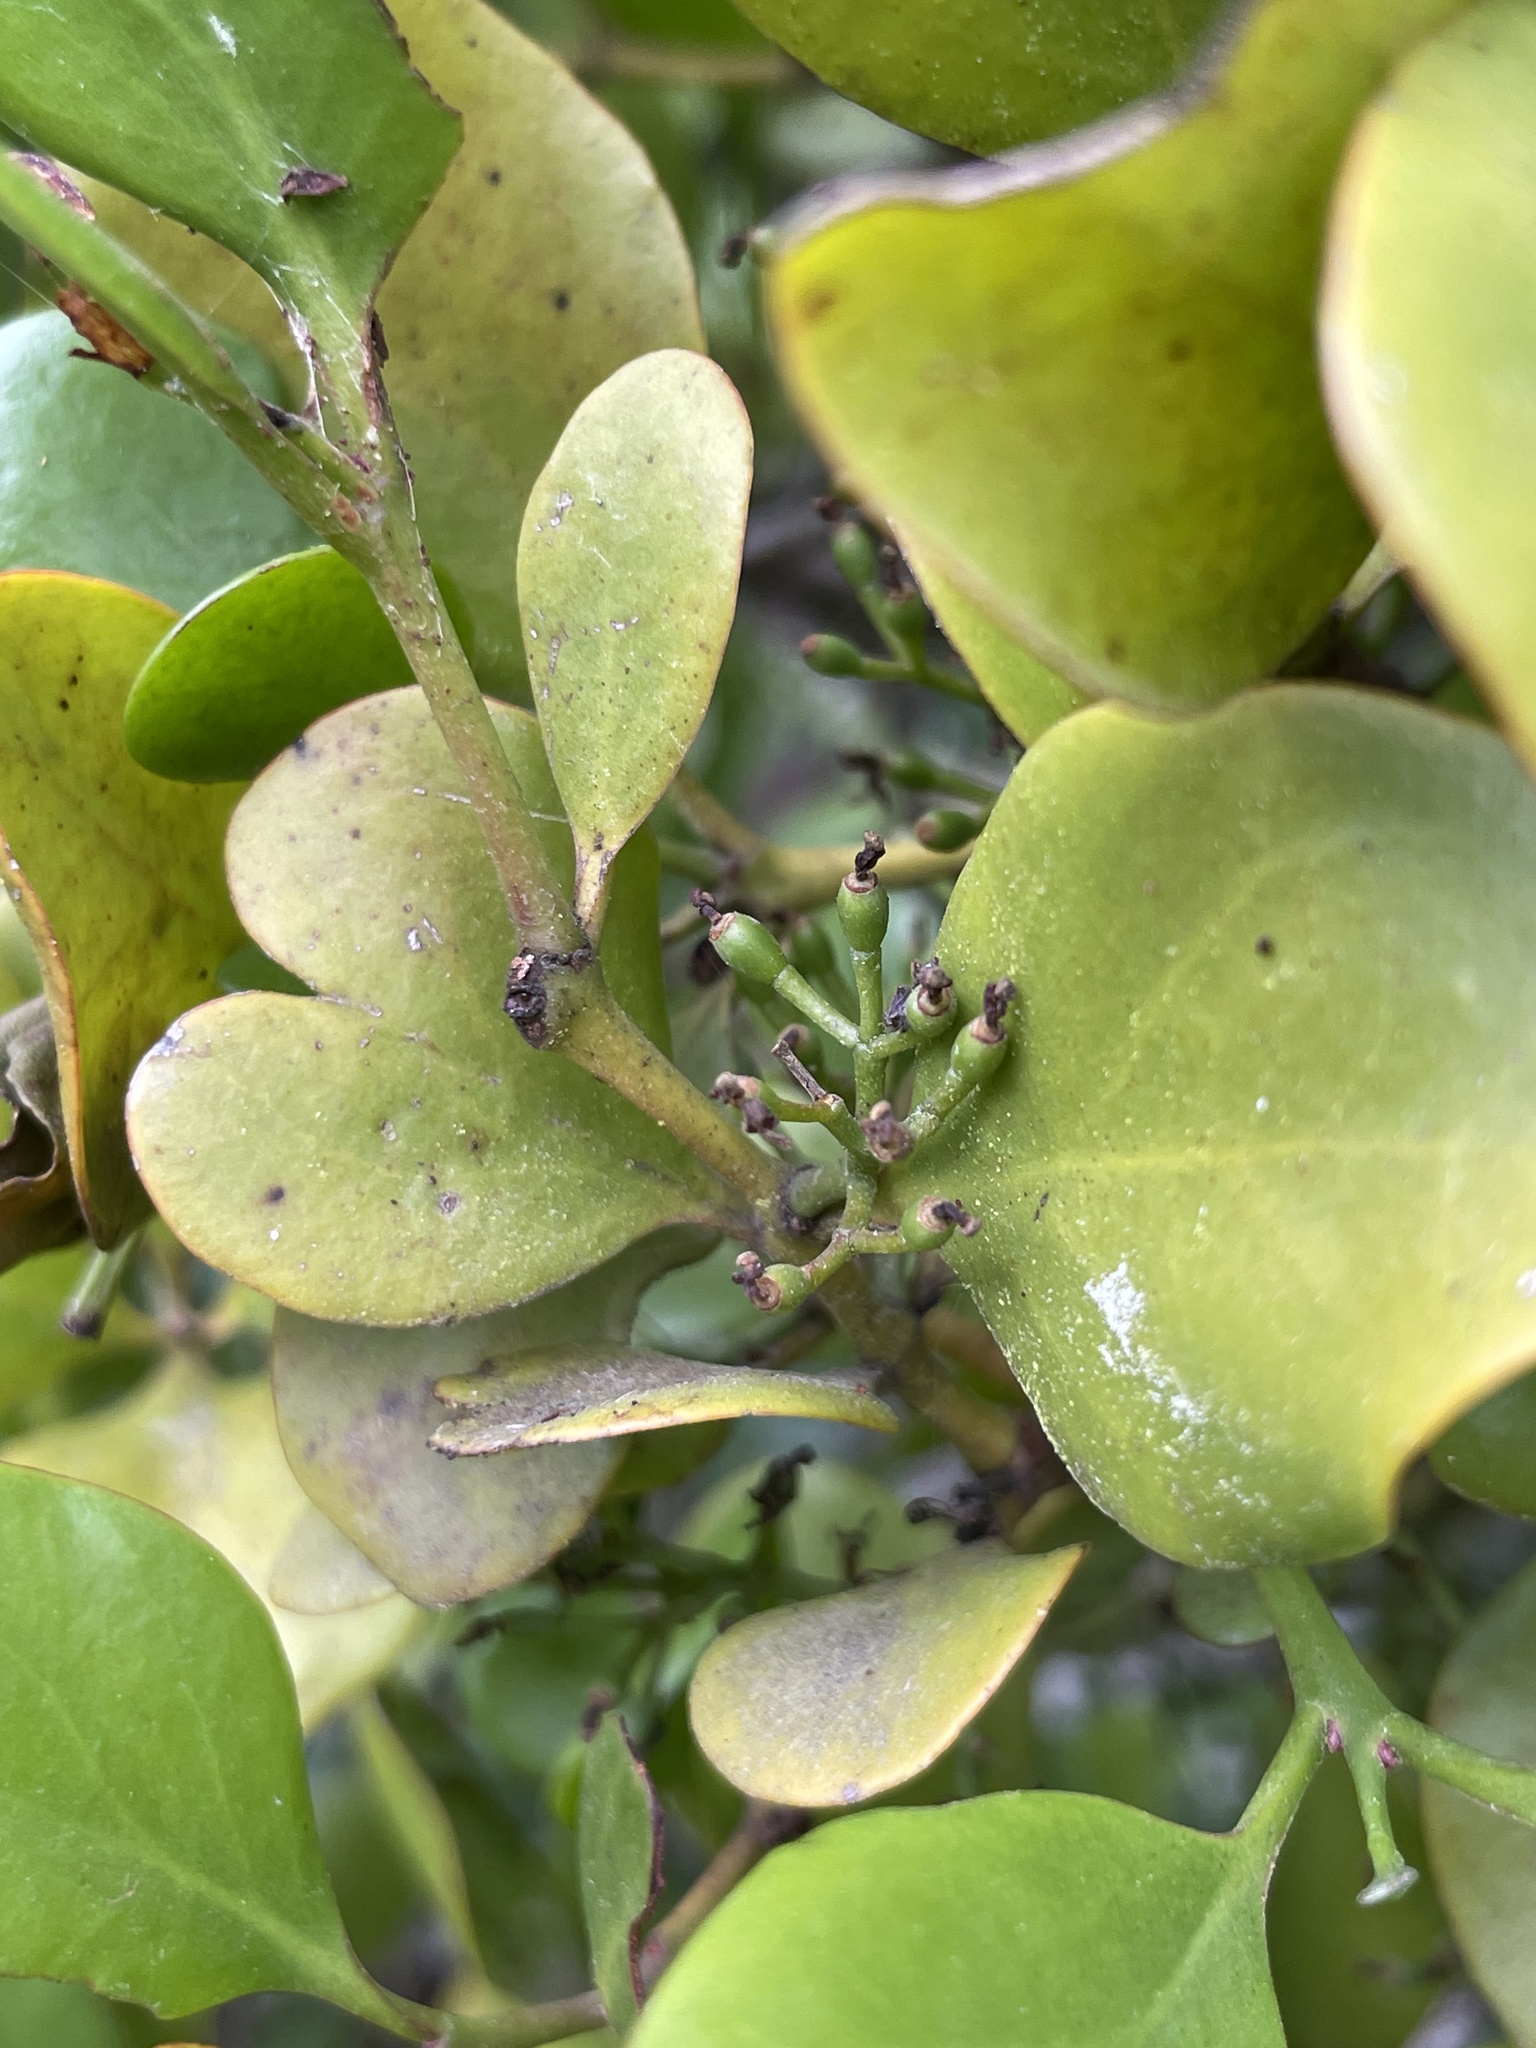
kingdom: Plantae
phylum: Tracheophyta
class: Magnoliopsida
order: Santalales
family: Loranthaceae
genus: Ileostylus
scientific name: Ileostylus micranthus
